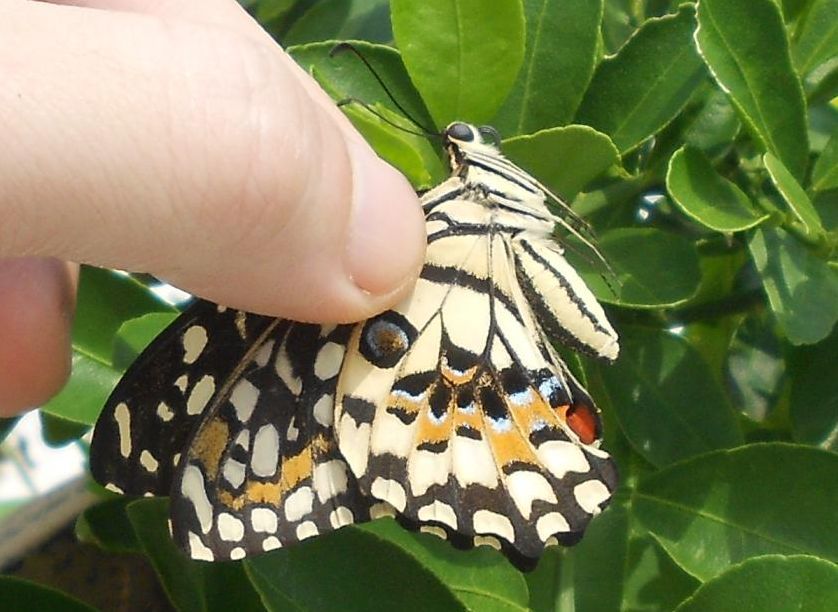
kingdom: Animalia
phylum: Arthropoda
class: Insecta
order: Lepidoptera
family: Papilionidae
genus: Papilio
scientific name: Papilio demoleus
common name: Lime butterfly
